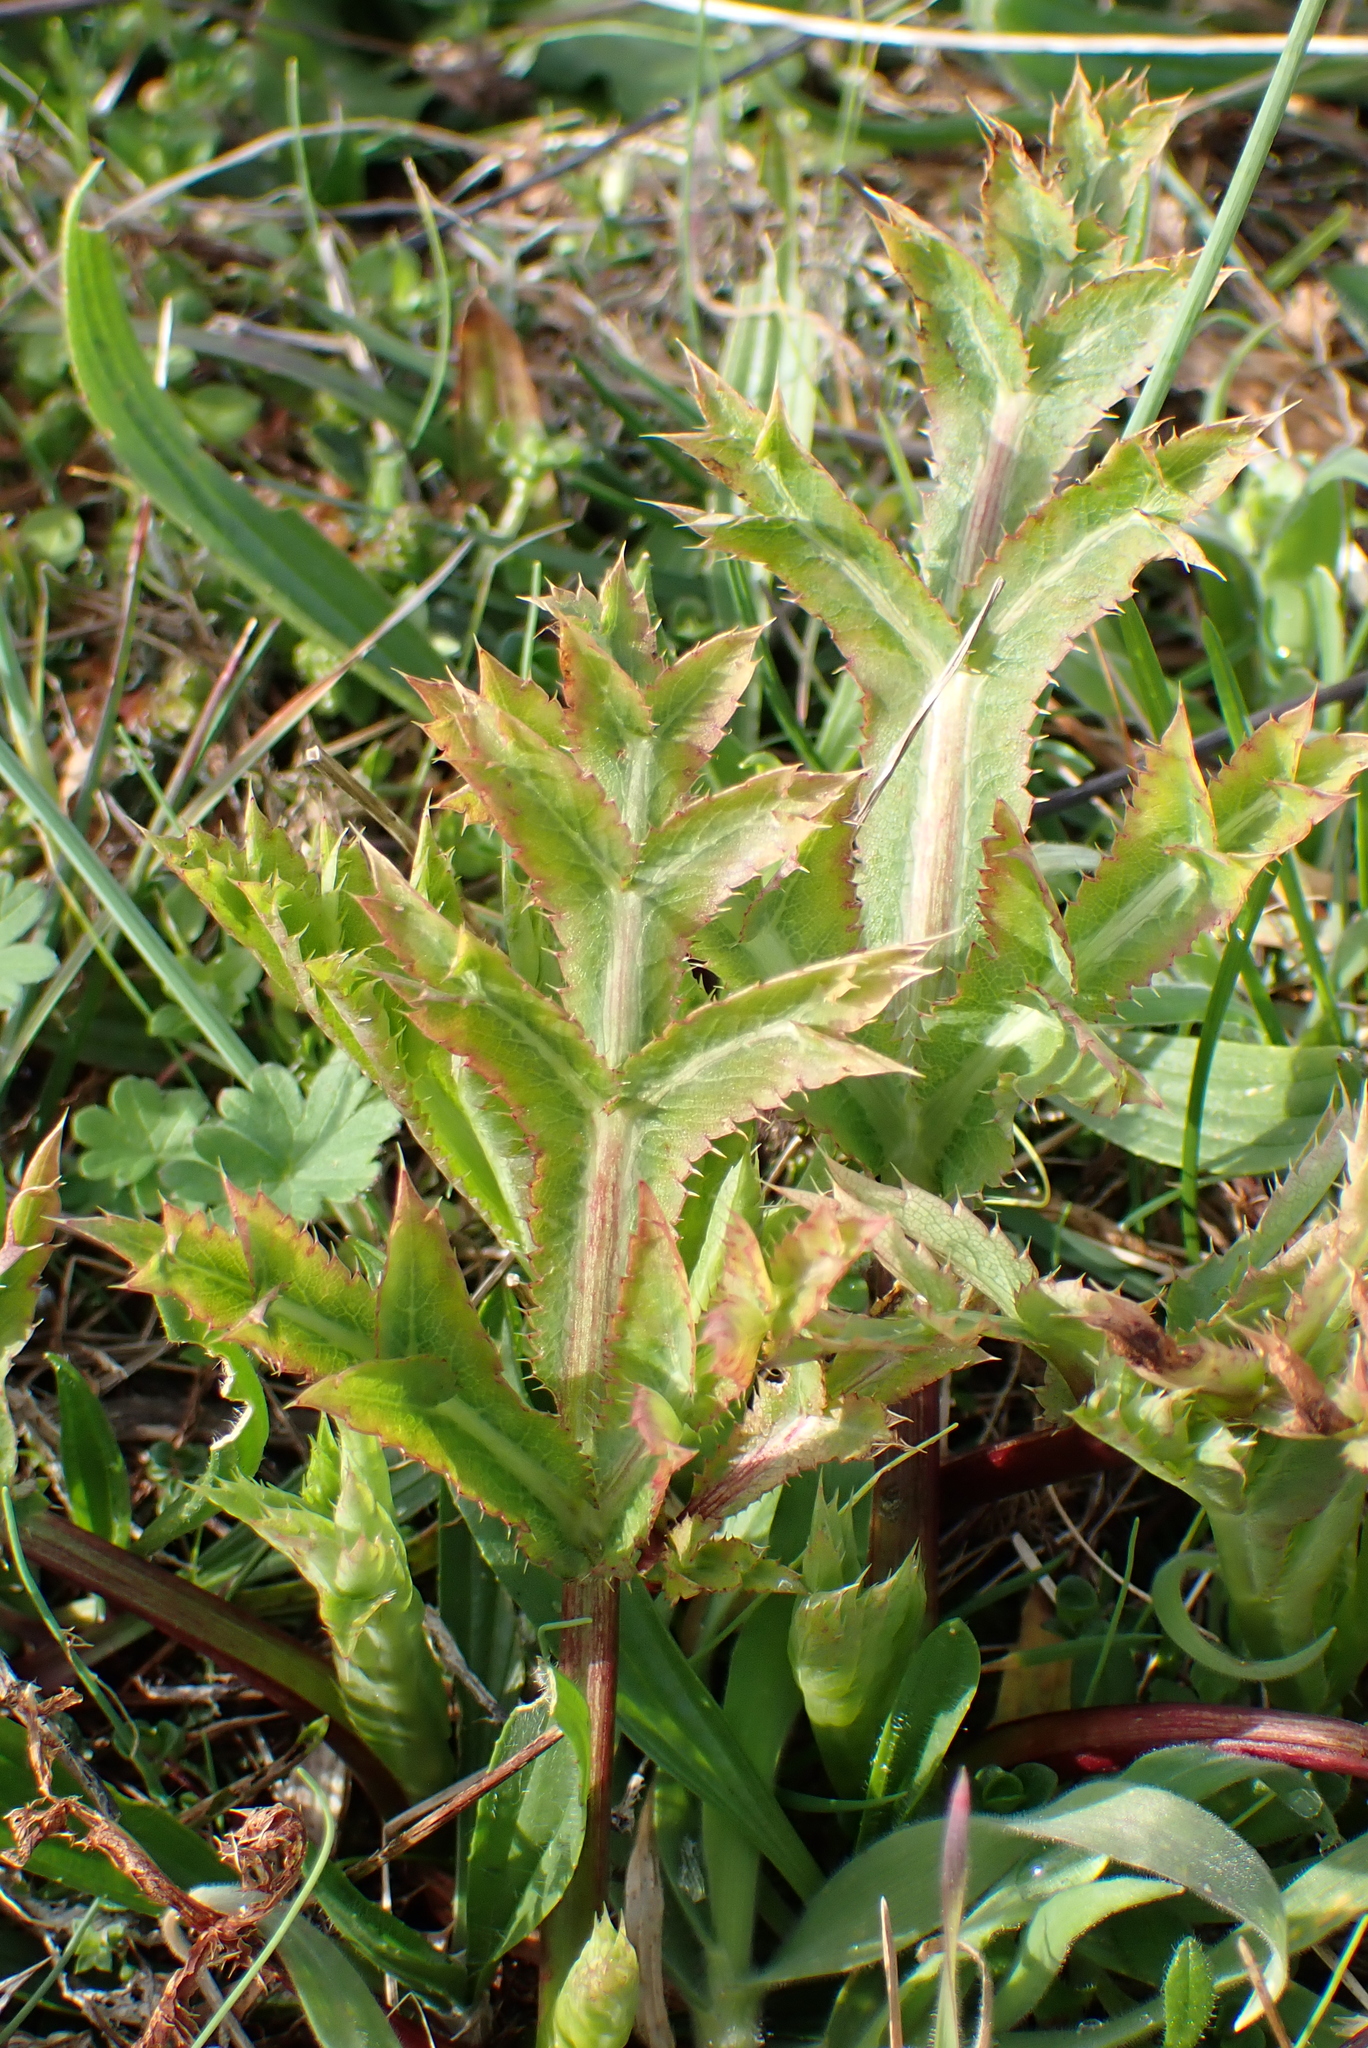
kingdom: Plantae
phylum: Tracheophyta
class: Magnoliopsida
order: Apiales
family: Apiaceae
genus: Eryngium
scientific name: Eryngium campestre
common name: Field eryngo
